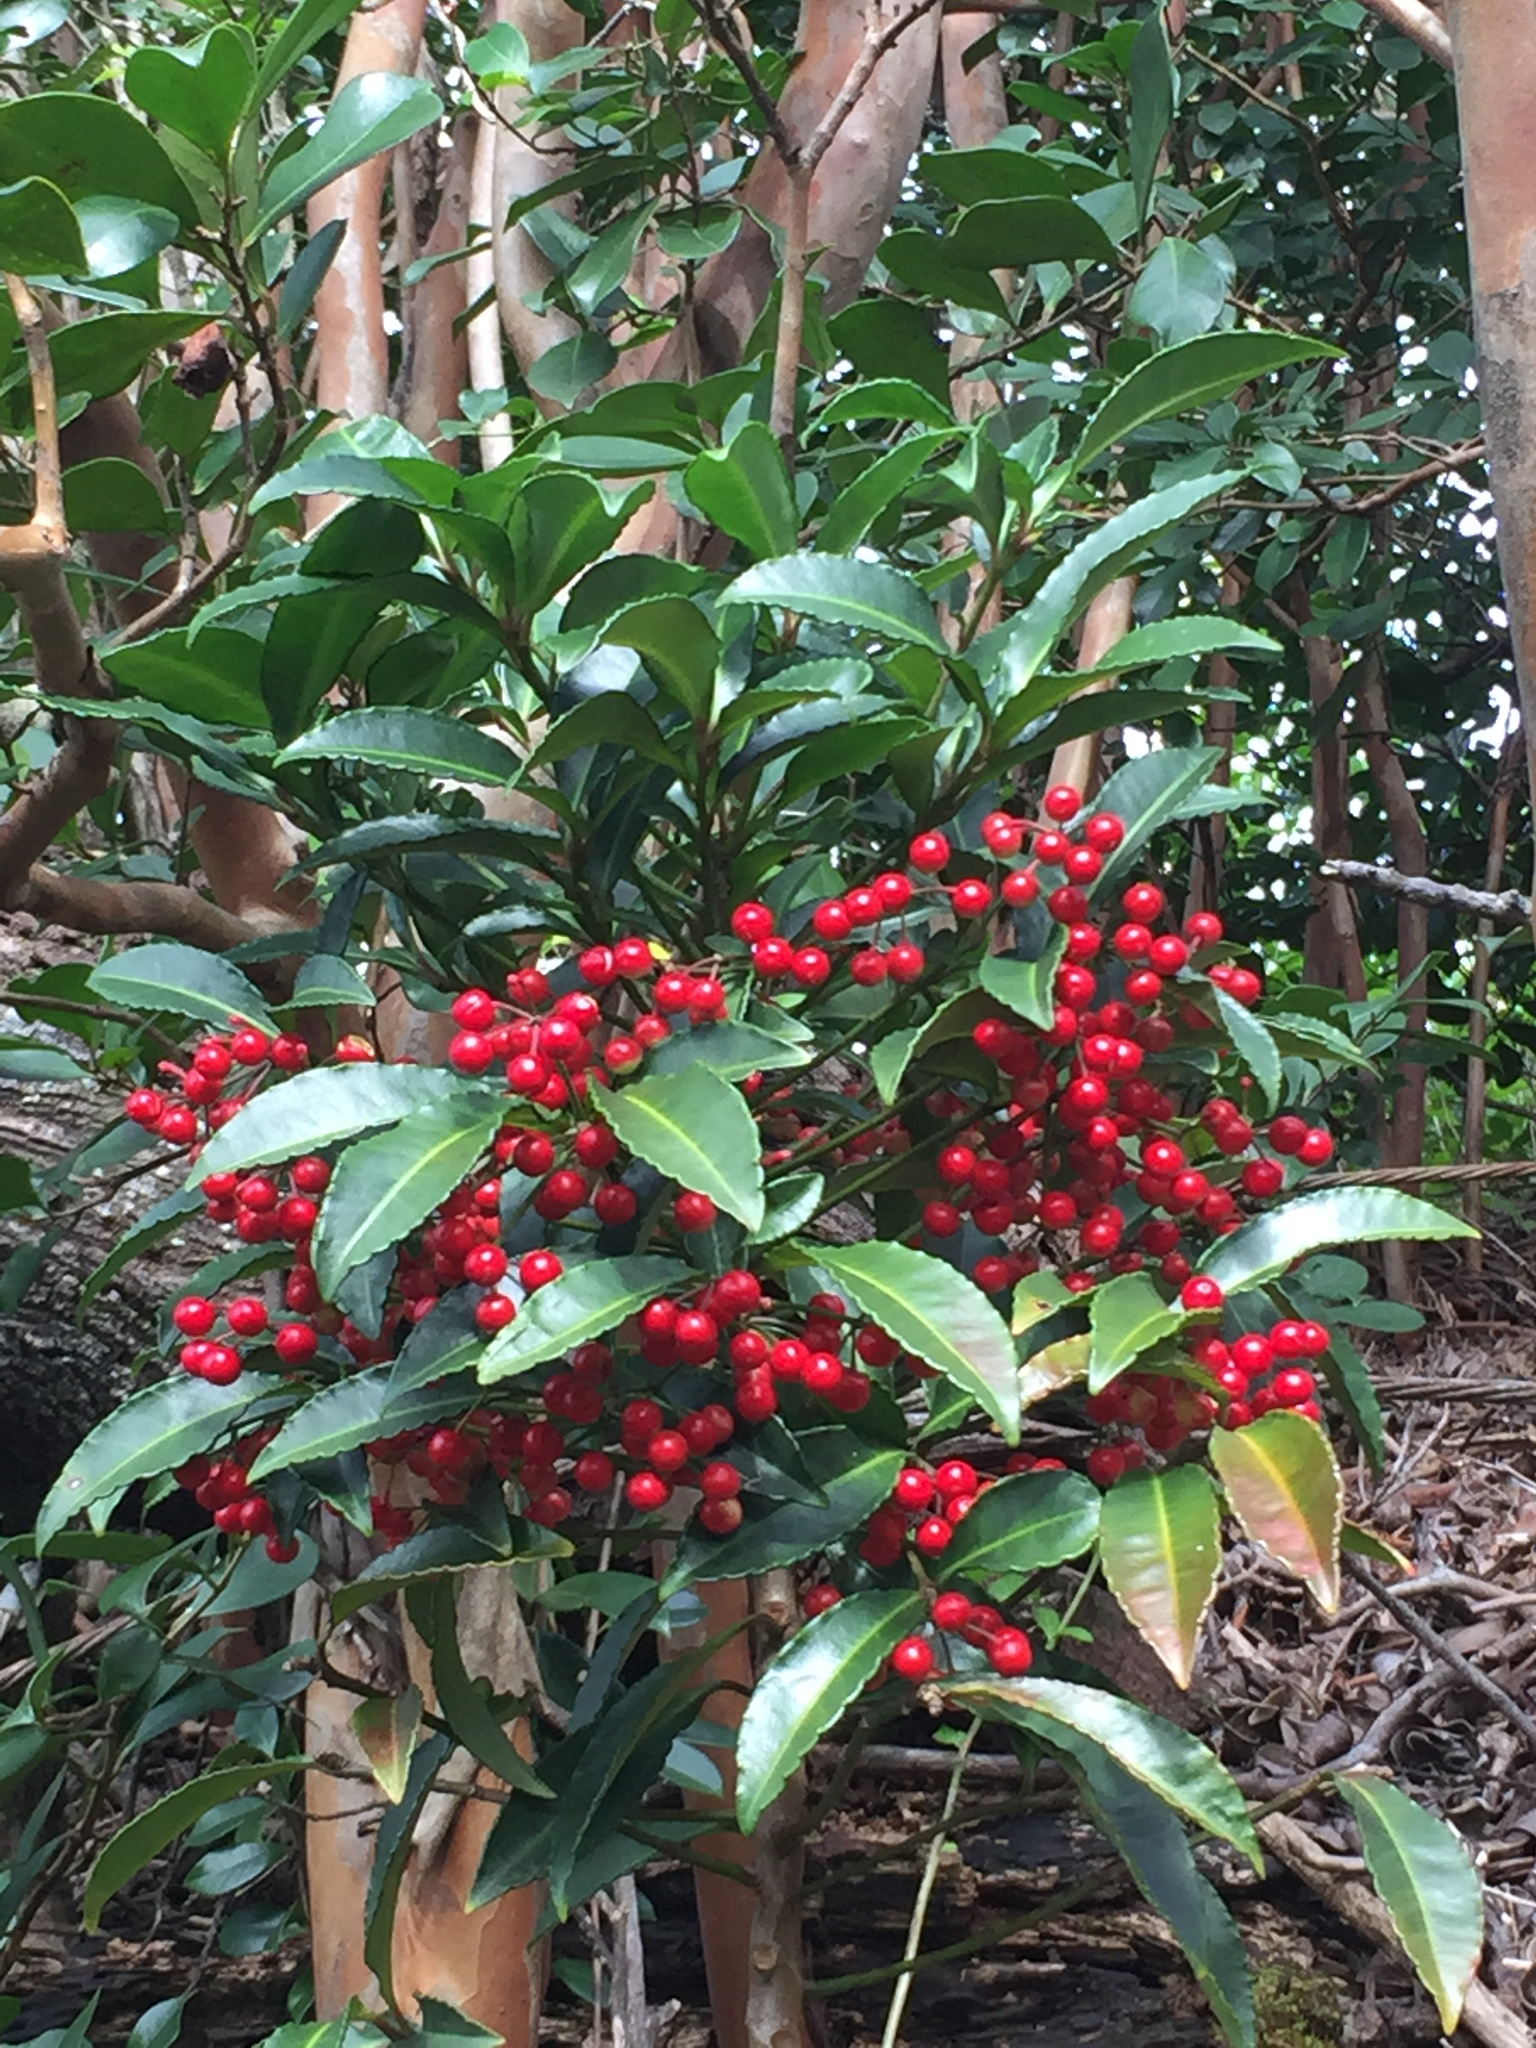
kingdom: Plantae
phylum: Tracheophyta
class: Magnoliopsida
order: Ericales
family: Primulaceae
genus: Ardisia
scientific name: Ardisia crenata
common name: Hen's eyes
